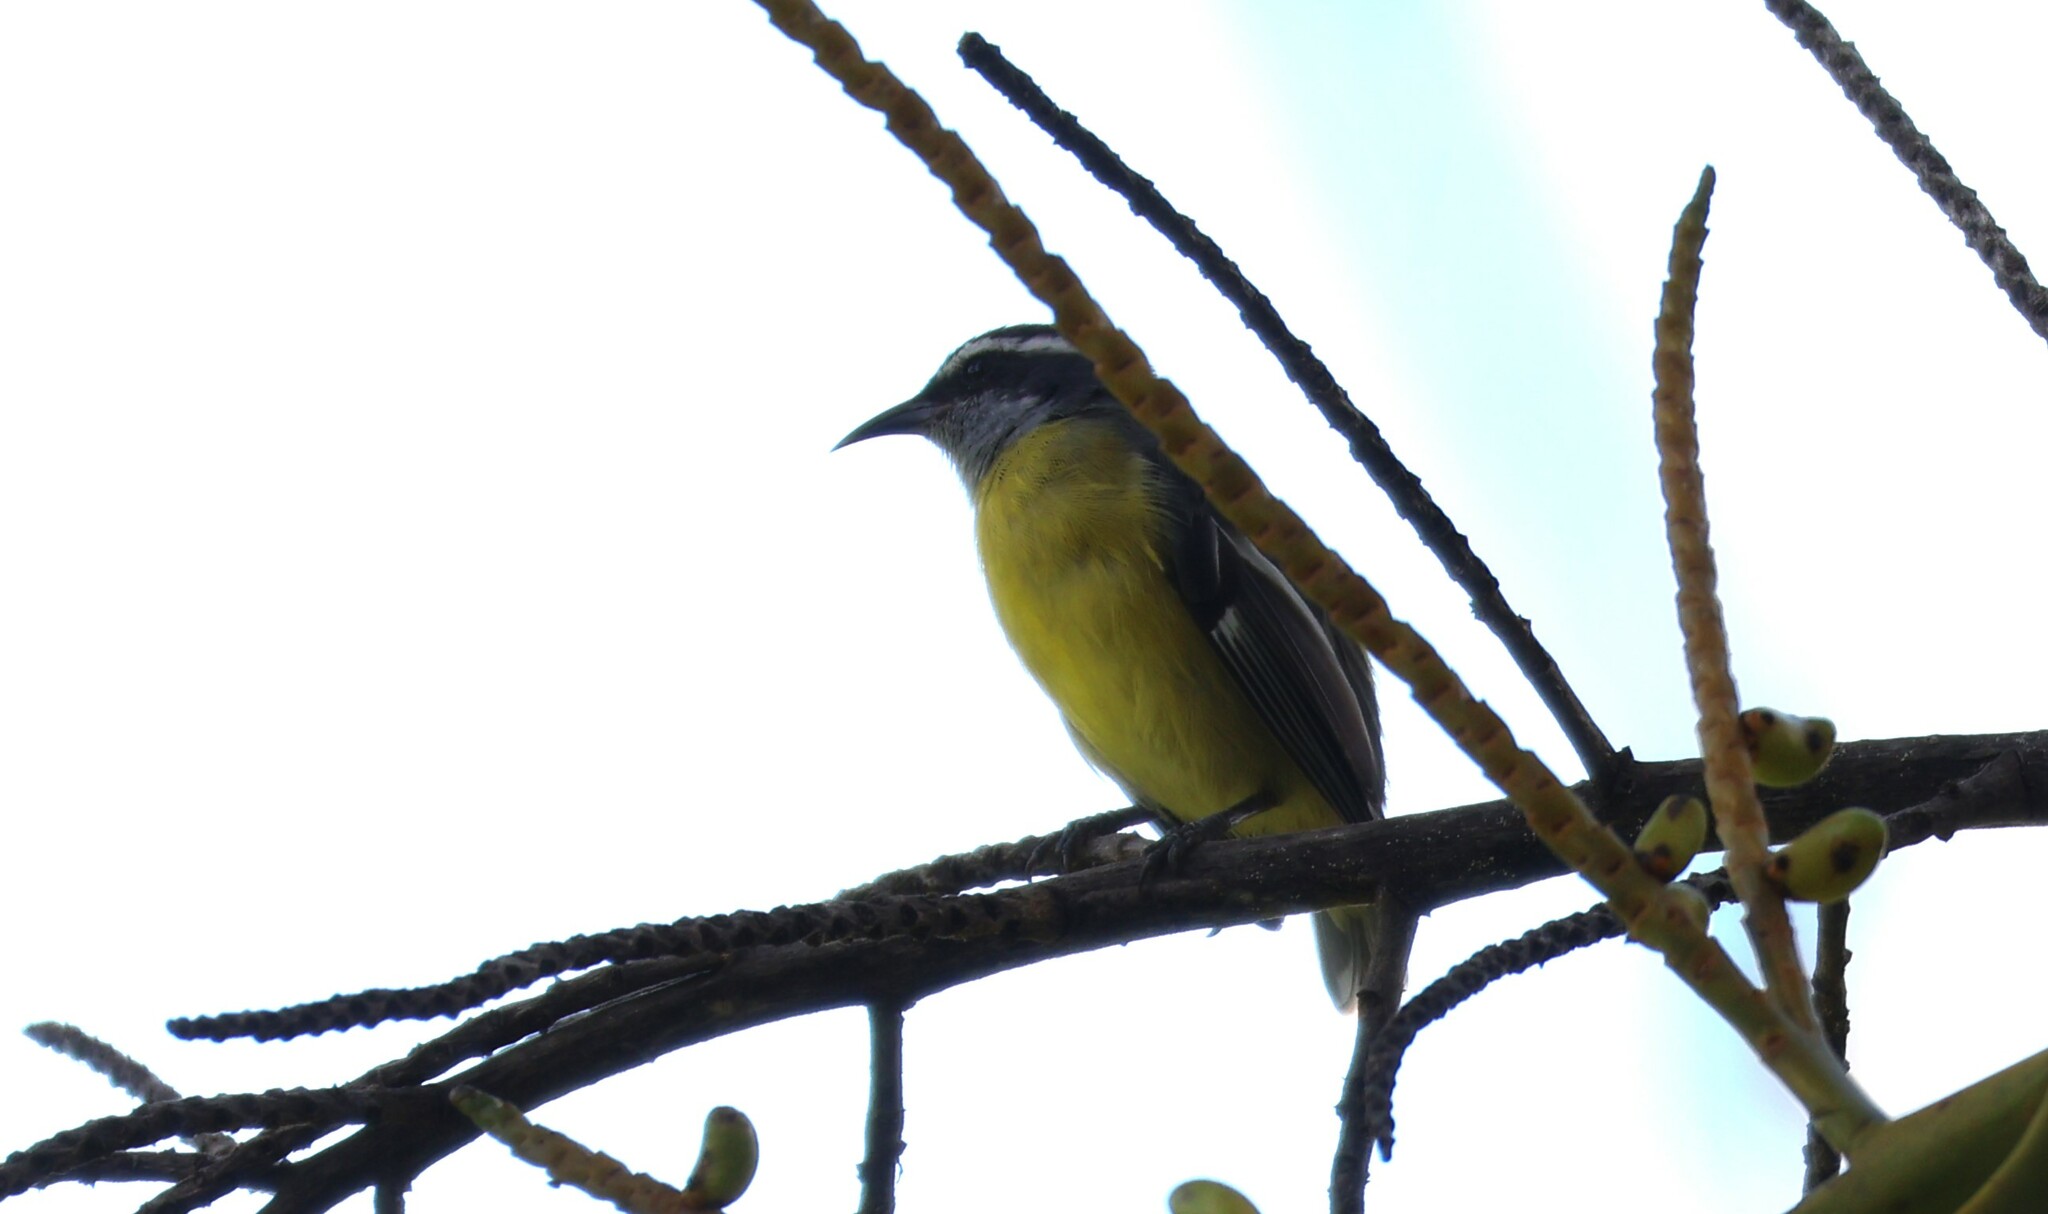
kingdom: Animalia
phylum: Chordata
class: Aves
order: Passeriformes
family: Thraupidae
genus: Coereba
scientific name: Coereba flaveola
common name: Bananaquit
